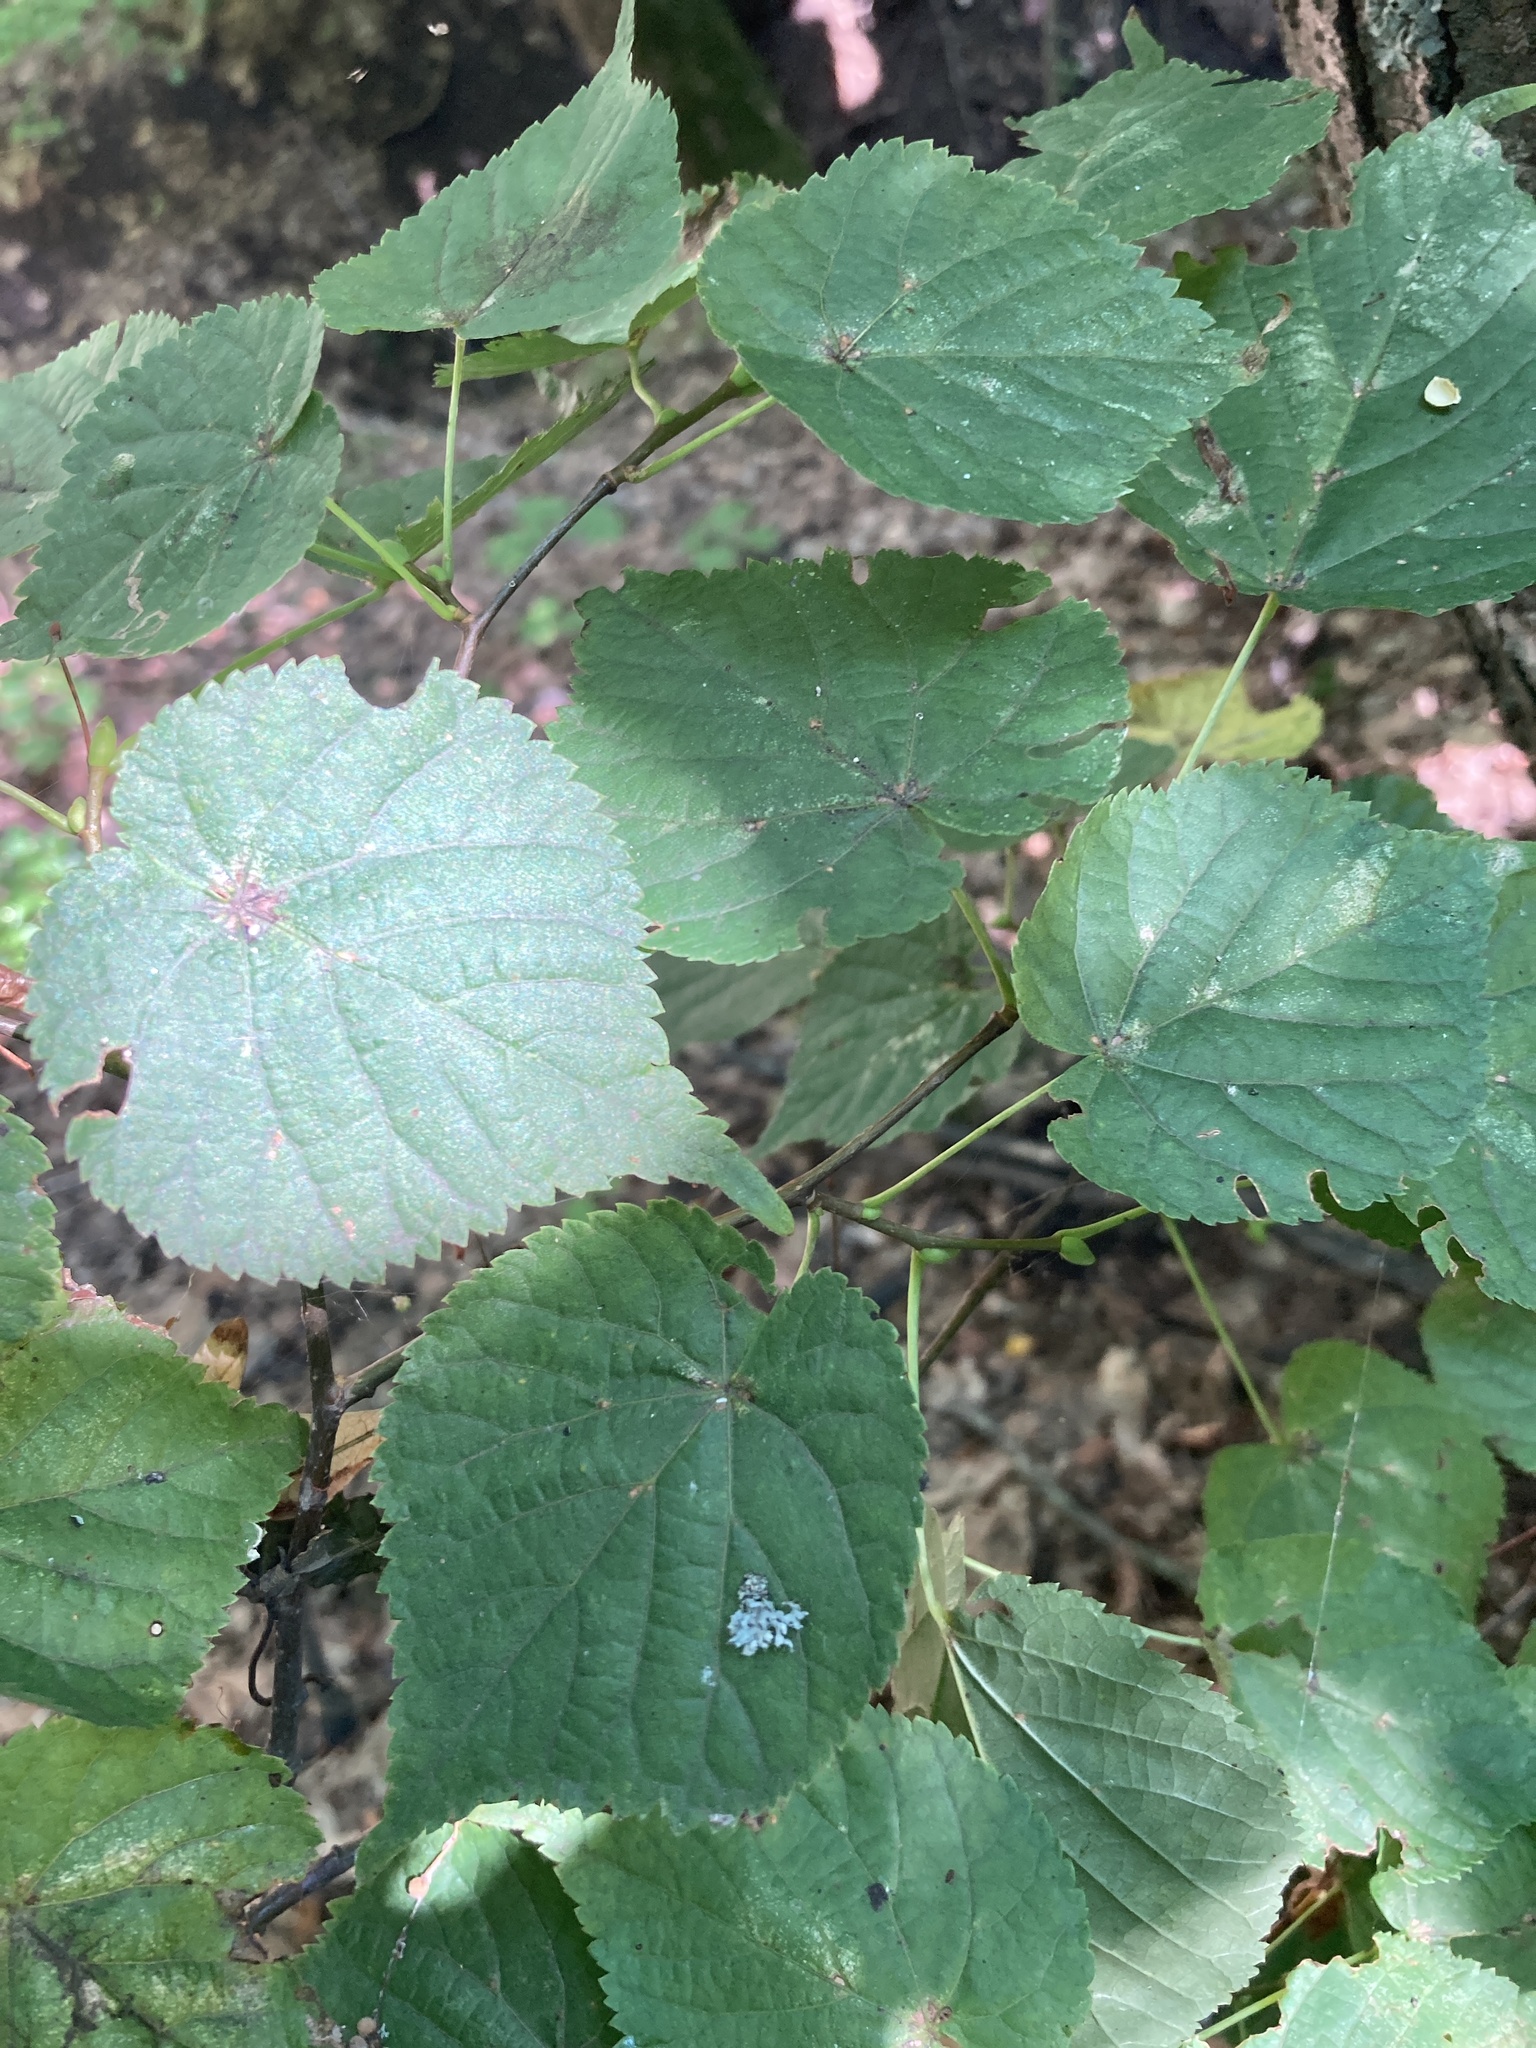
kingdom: Plantae
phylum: Tracheophyta
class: Magnoliopsida
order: Malvales
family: Malvaceae
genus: Tilia
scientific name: Tilia cordata
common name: Small-leaved lime
